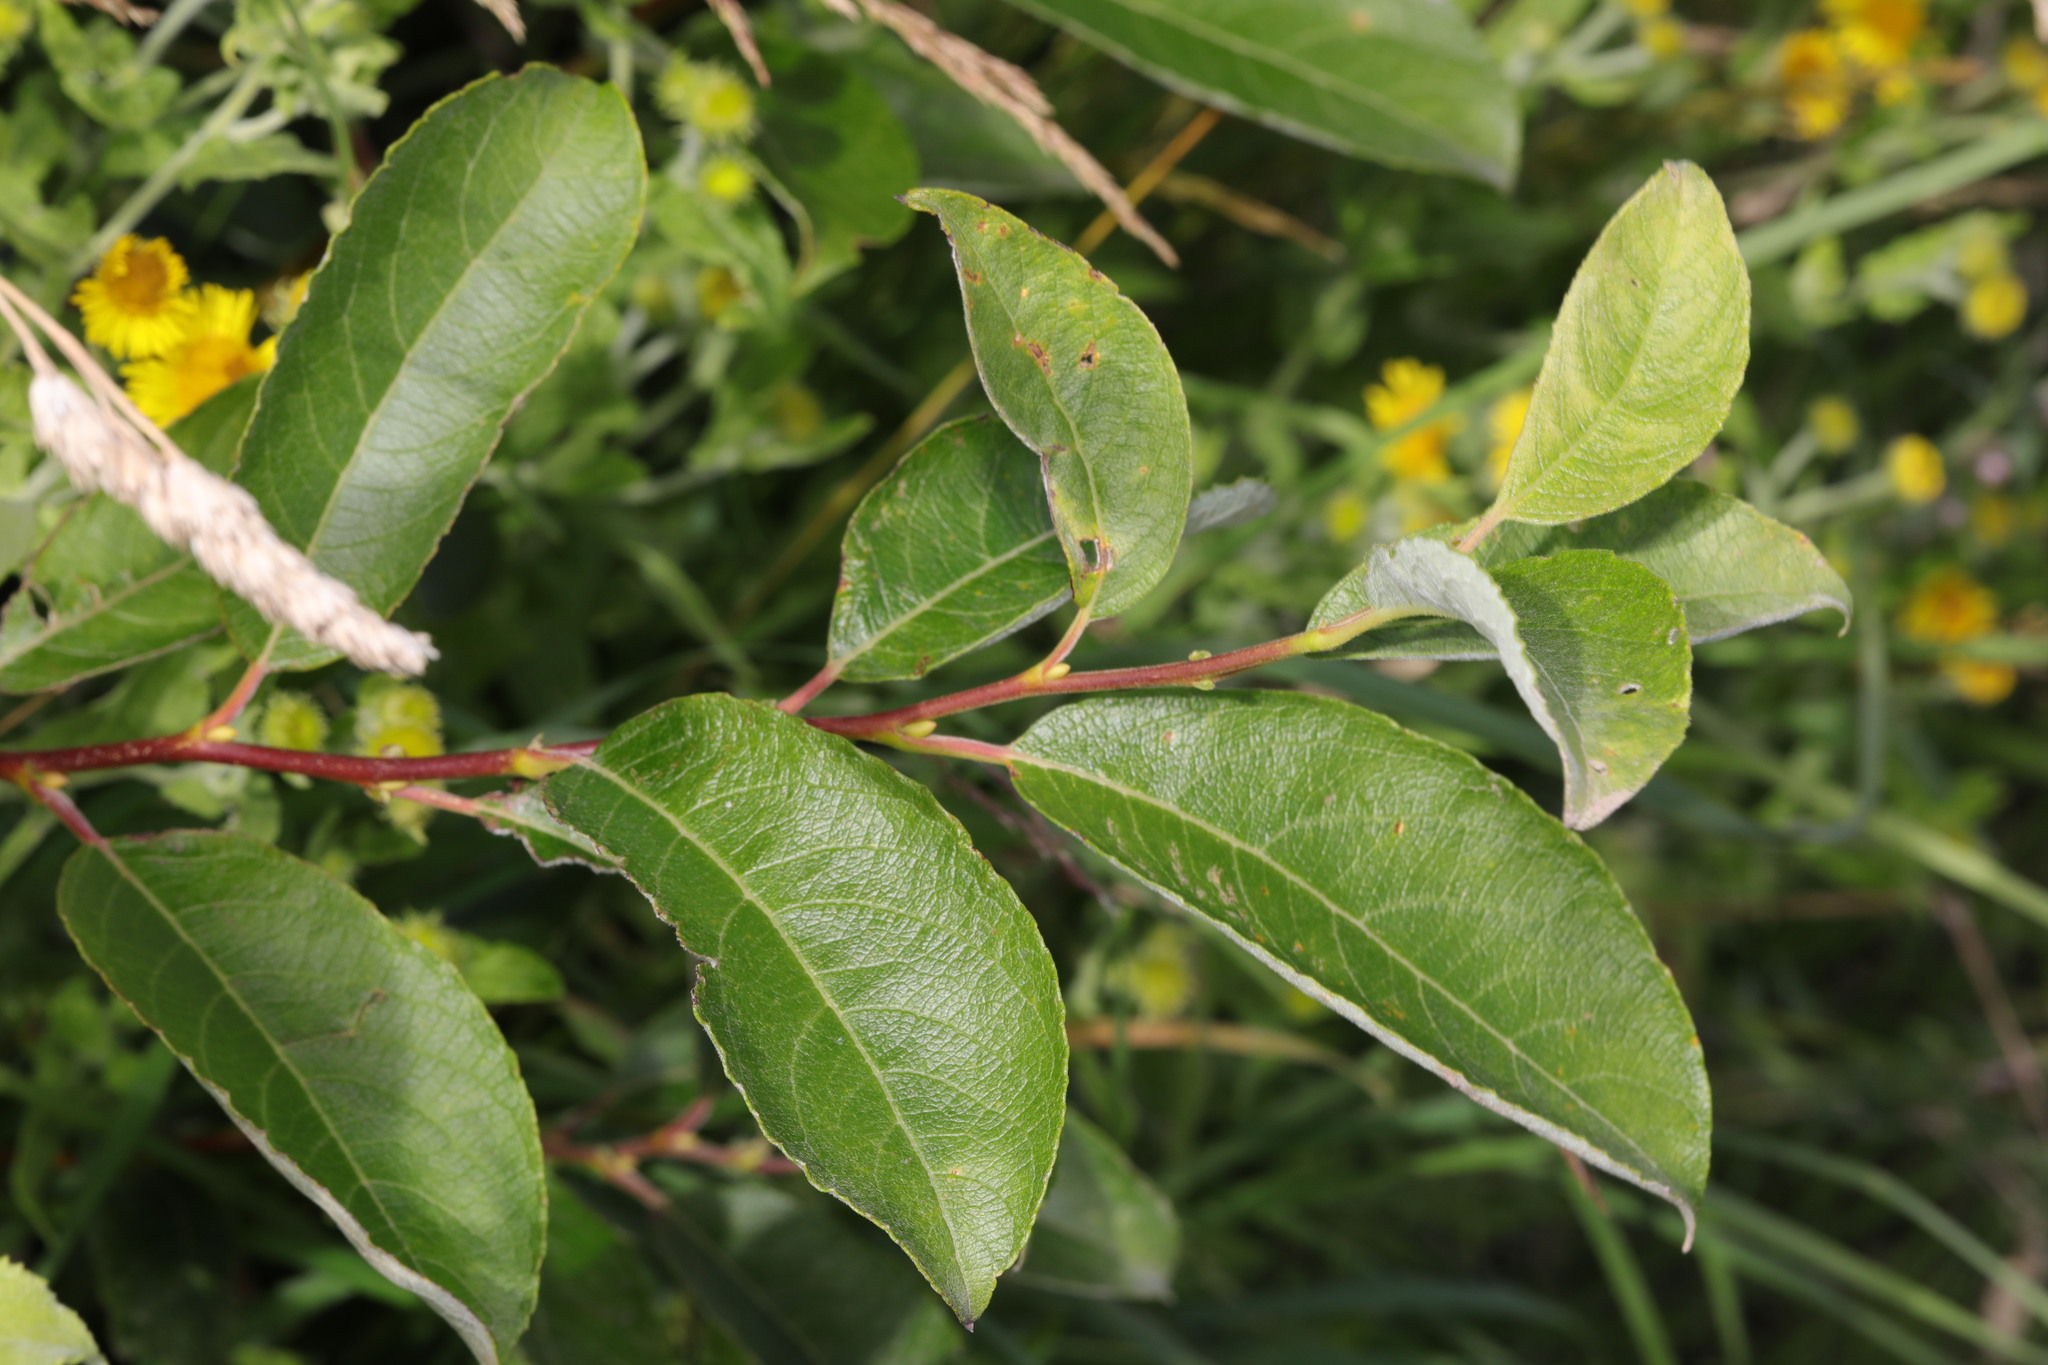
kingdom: Plantae
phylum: Tracheophyta
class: Magnoliopsida
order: Malpighiales
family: Salicaceae
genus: Salix
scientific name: Salix caprea
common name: Goat willow
